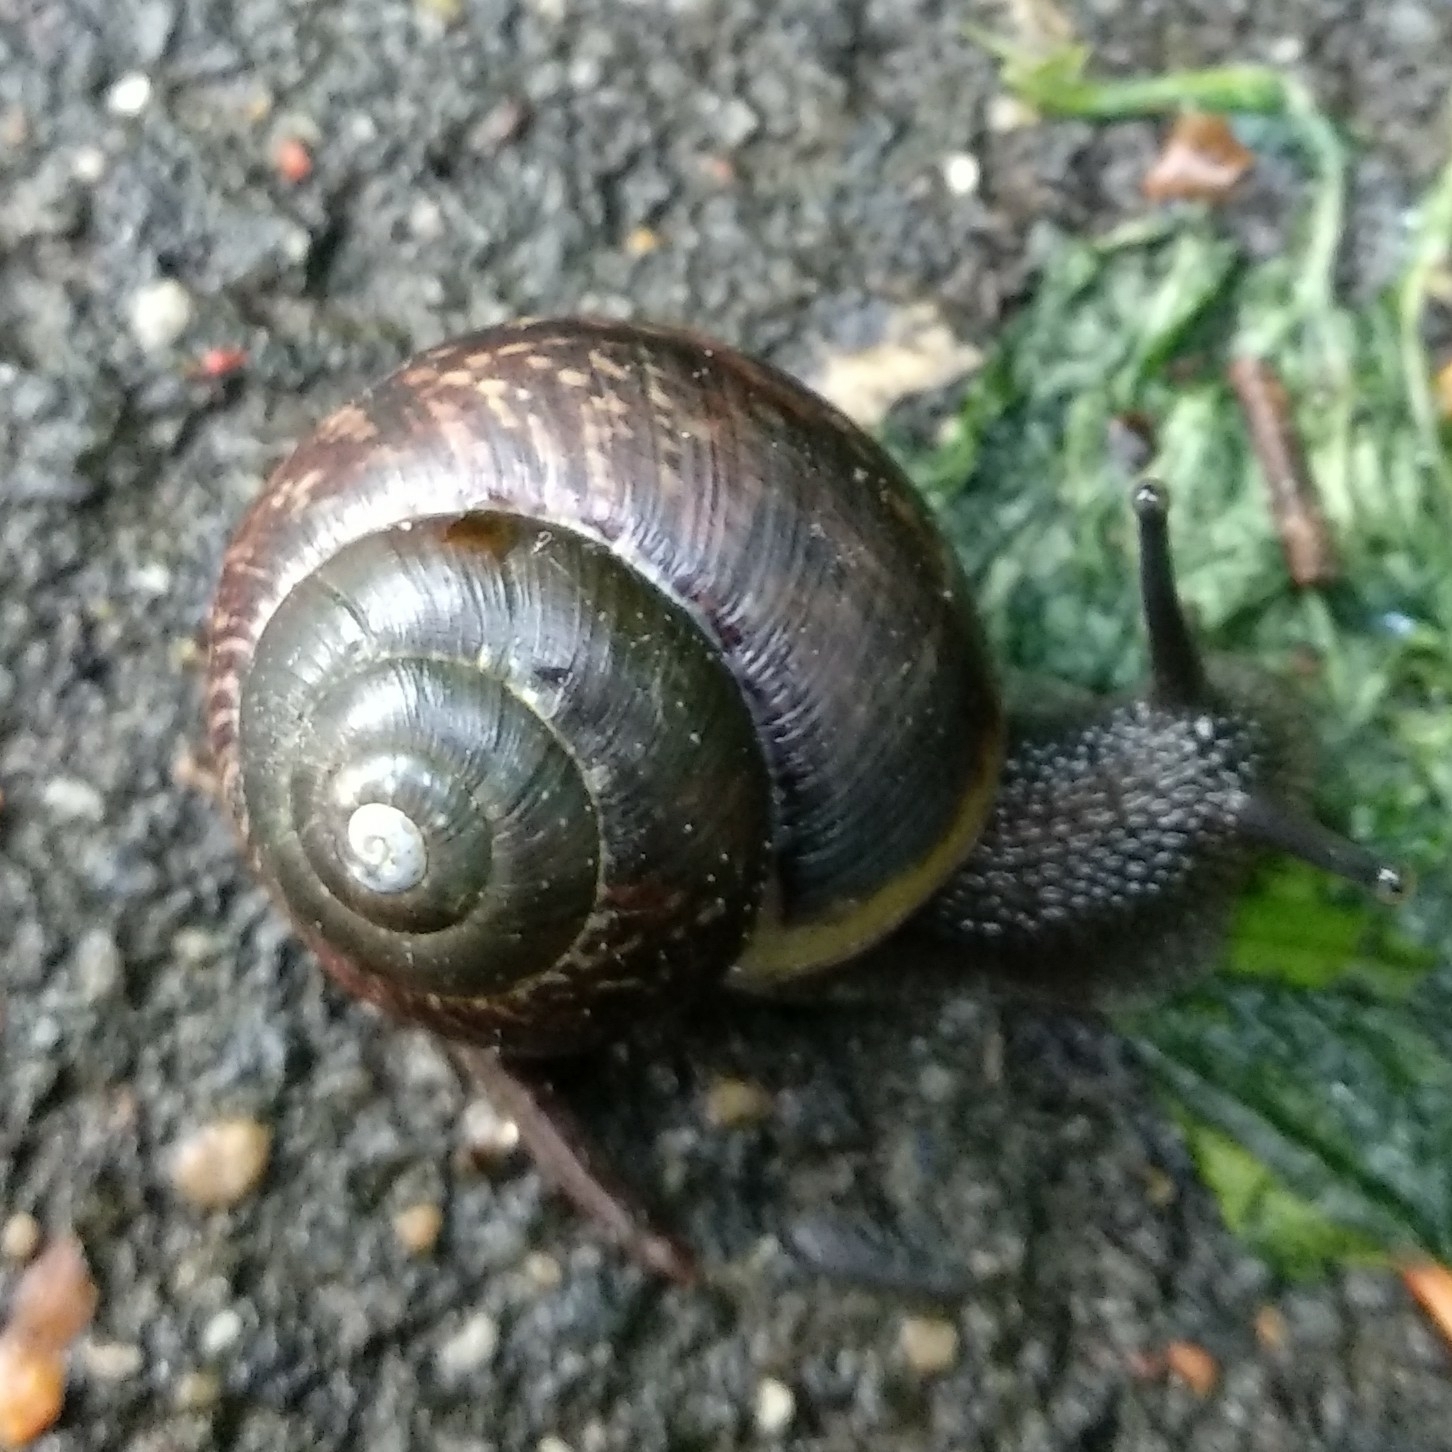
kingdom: Animalia
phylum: Mollusca
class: Gastropoda
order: Stylommatophora
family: Helicidae
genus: Arianta
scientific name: Arianta arbustorum
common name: Copse snail
